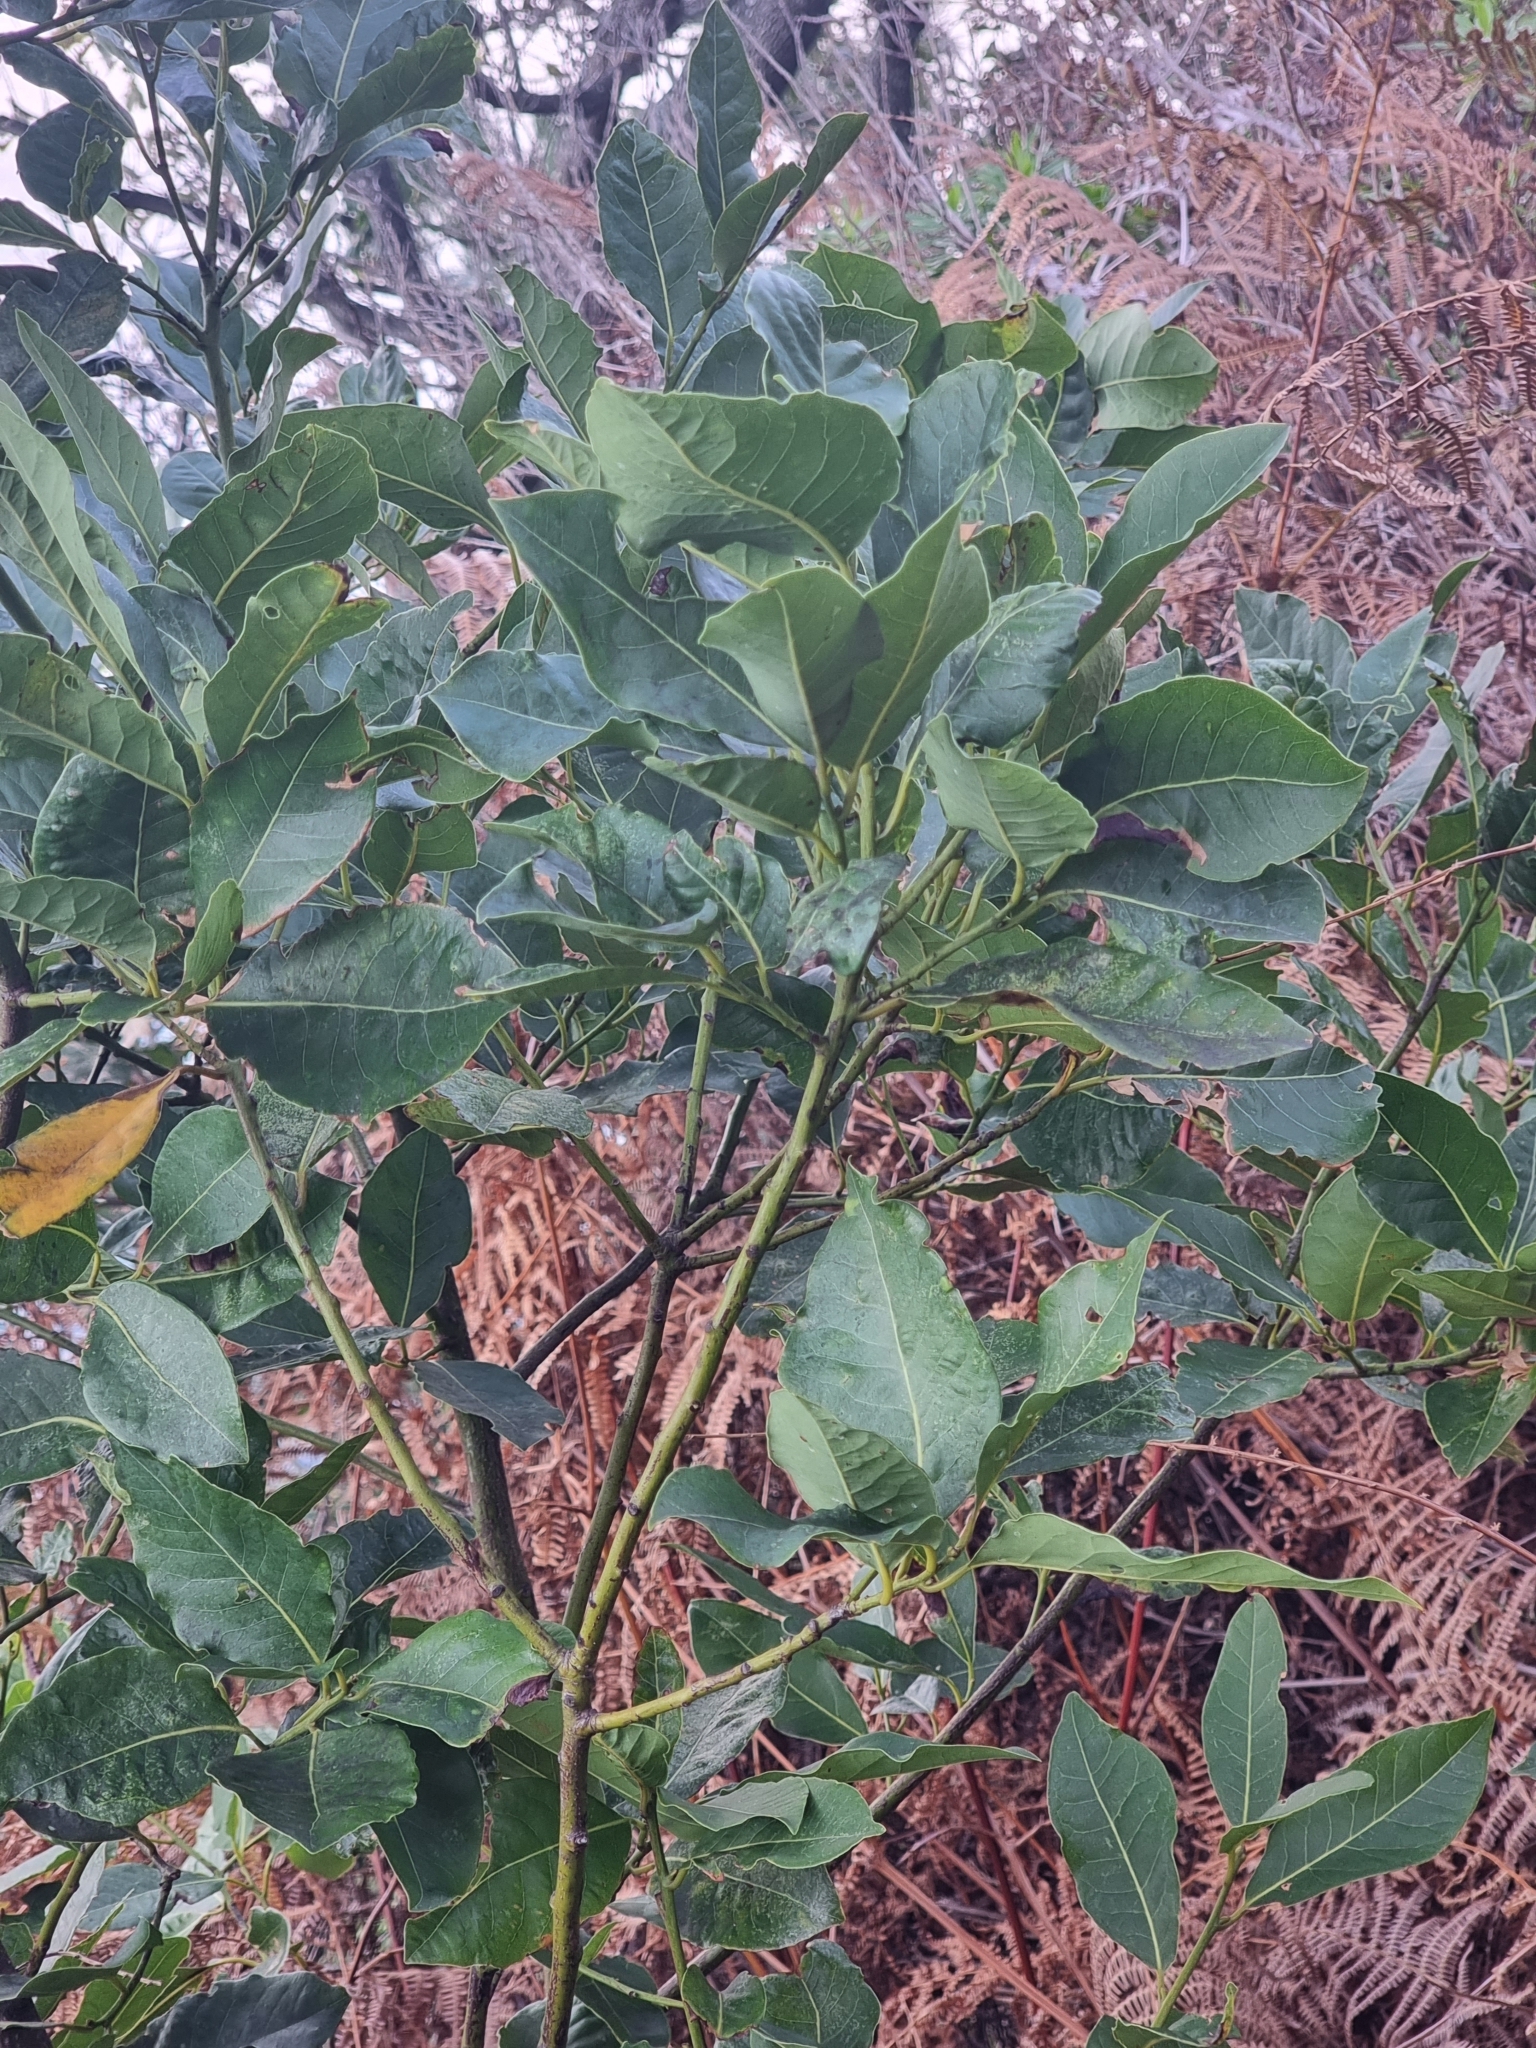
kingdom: Plantae
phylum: Tracheophyta
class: Magnoliopsida
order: Laurales
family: Lauraceae
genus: Laurus
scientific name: Laurus novocanariensis
